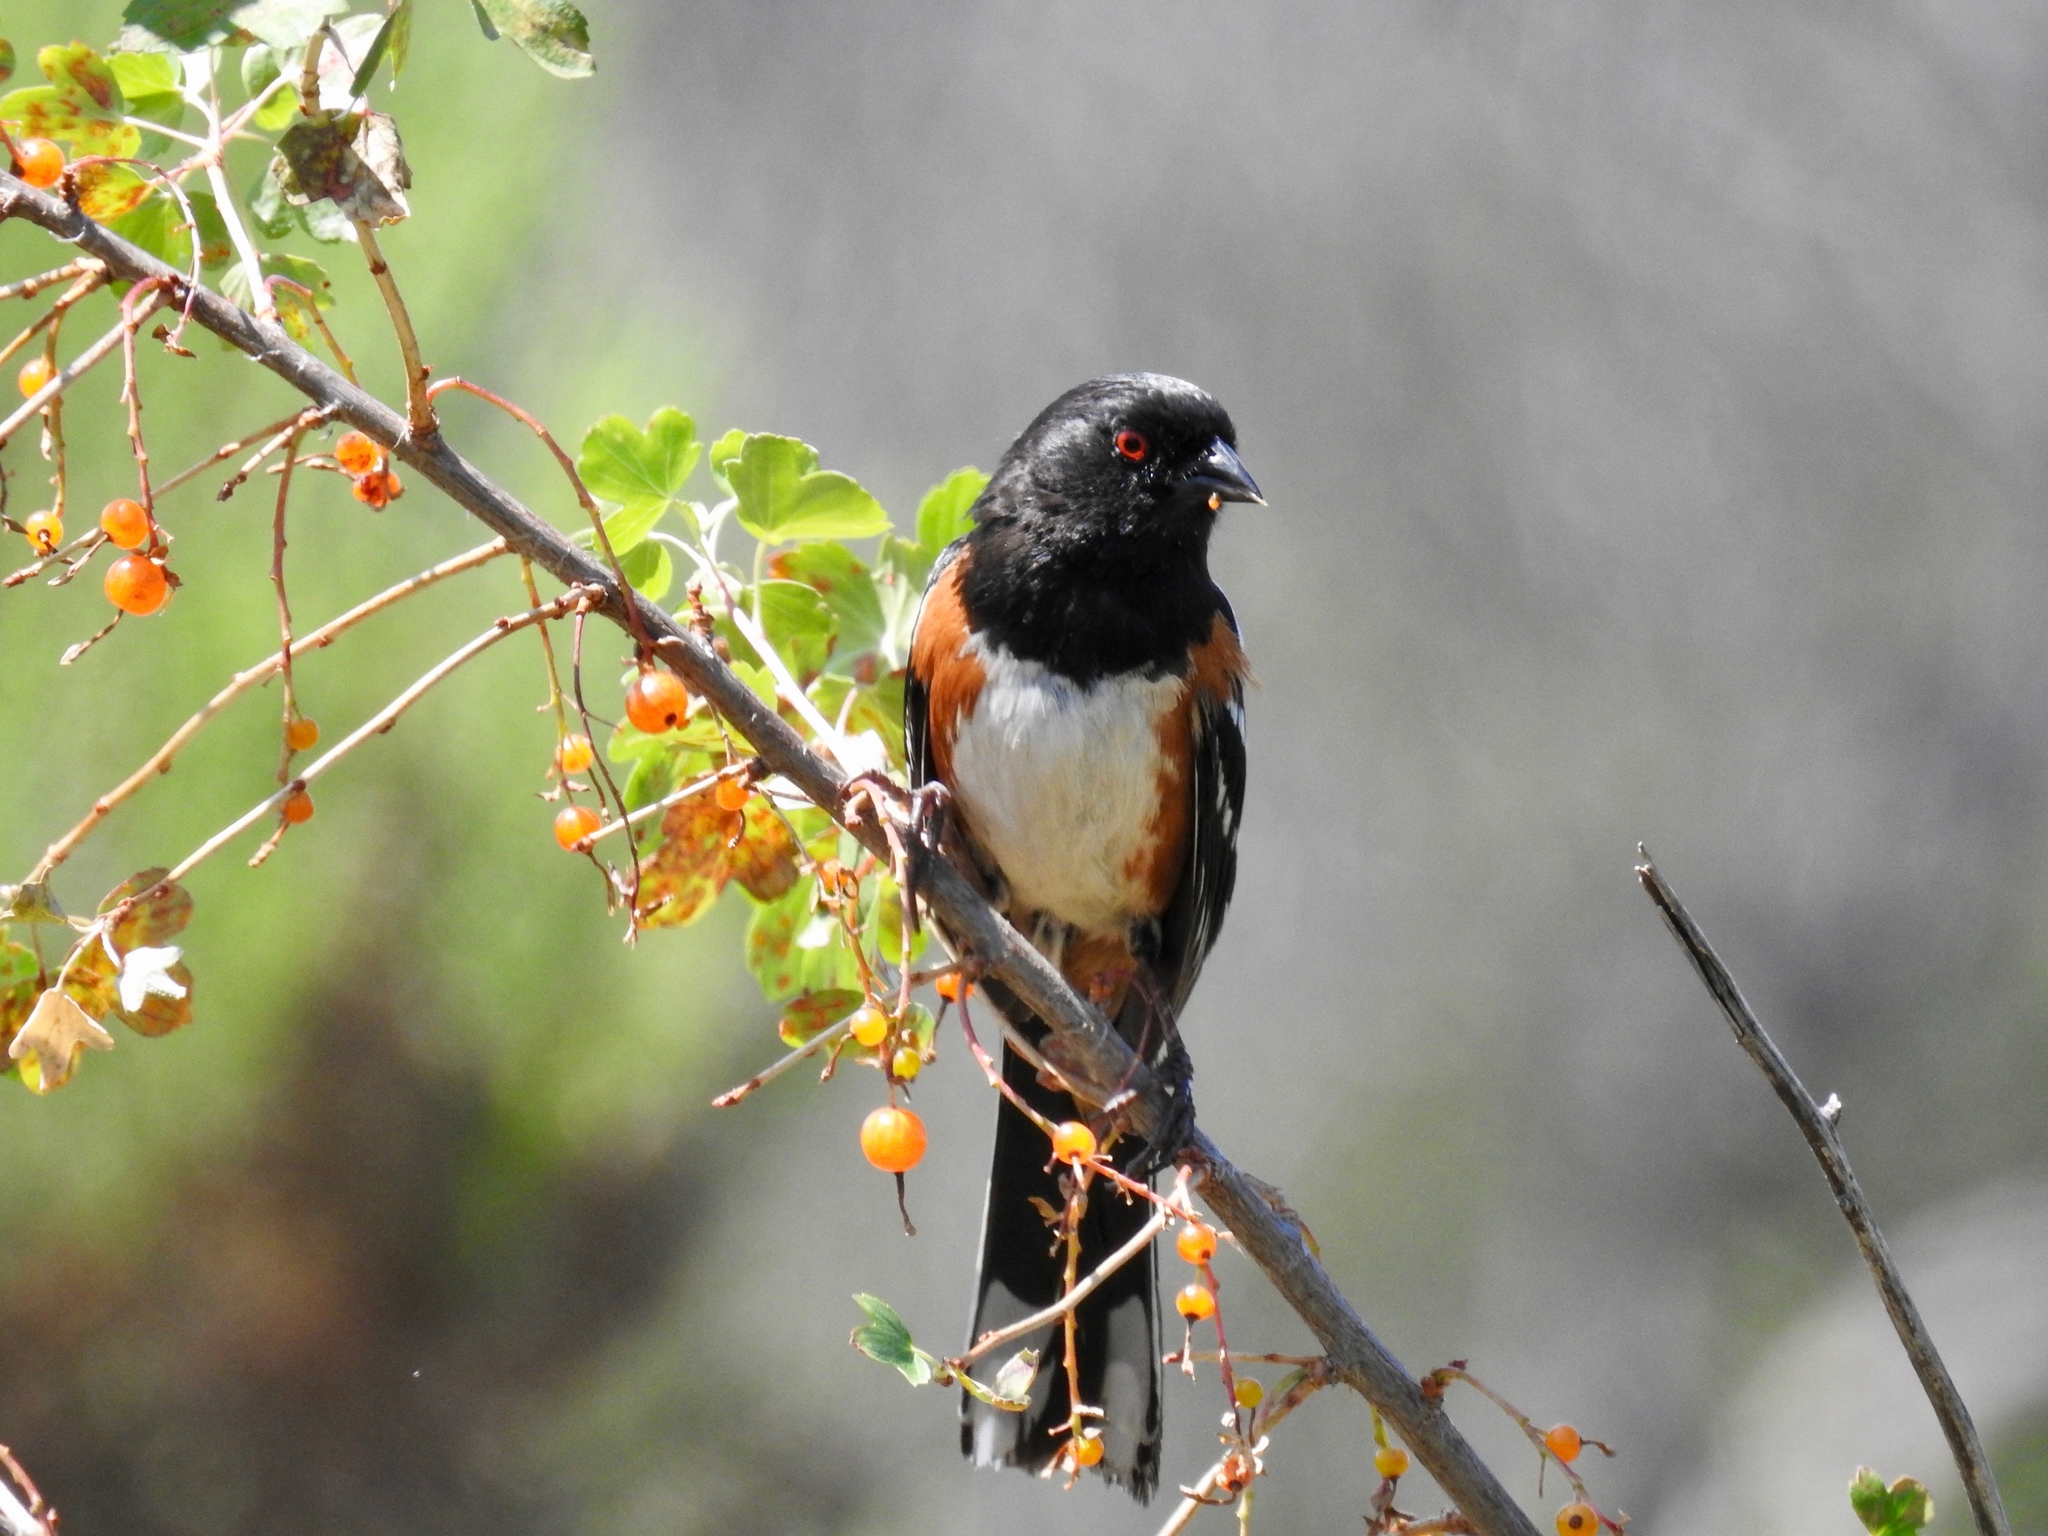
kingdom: Animalia
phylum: Chordata
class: Aves
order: Passeriformes
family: Passerellidae
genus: Pipilo
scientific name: Pipilo maculatus
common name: Spotted towhee
